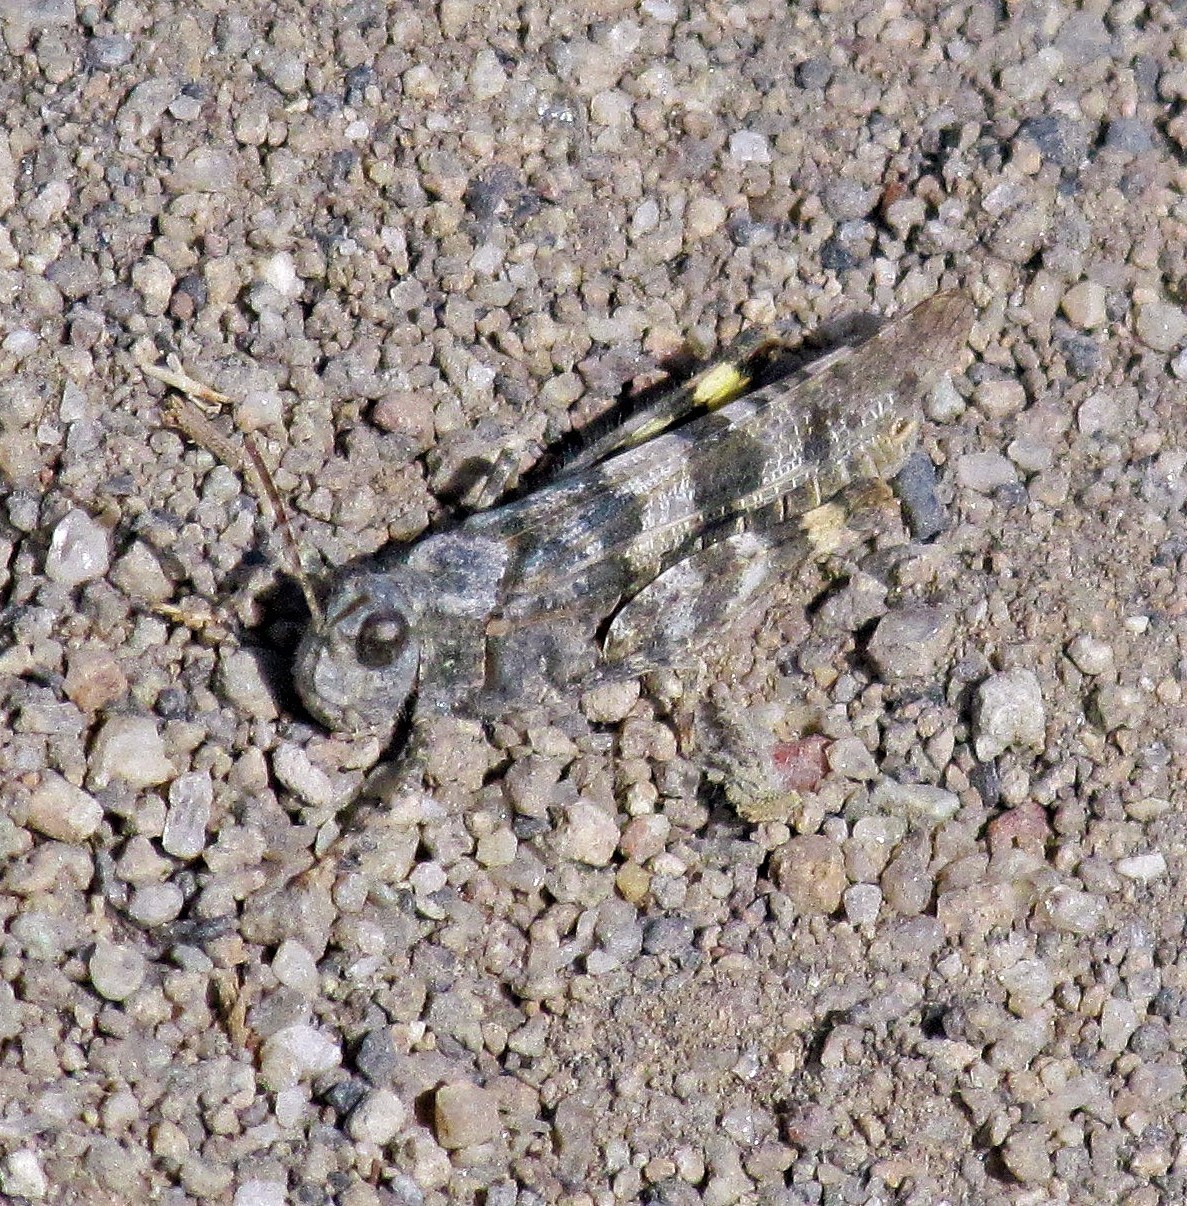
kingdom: Animalia
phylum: Arthropoda
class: Insecta
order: Orthoptera
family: Acrididae
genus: Trimerotropis
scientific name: Trimerotropis pallidipennis
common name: Pallid-winged grasshopper
